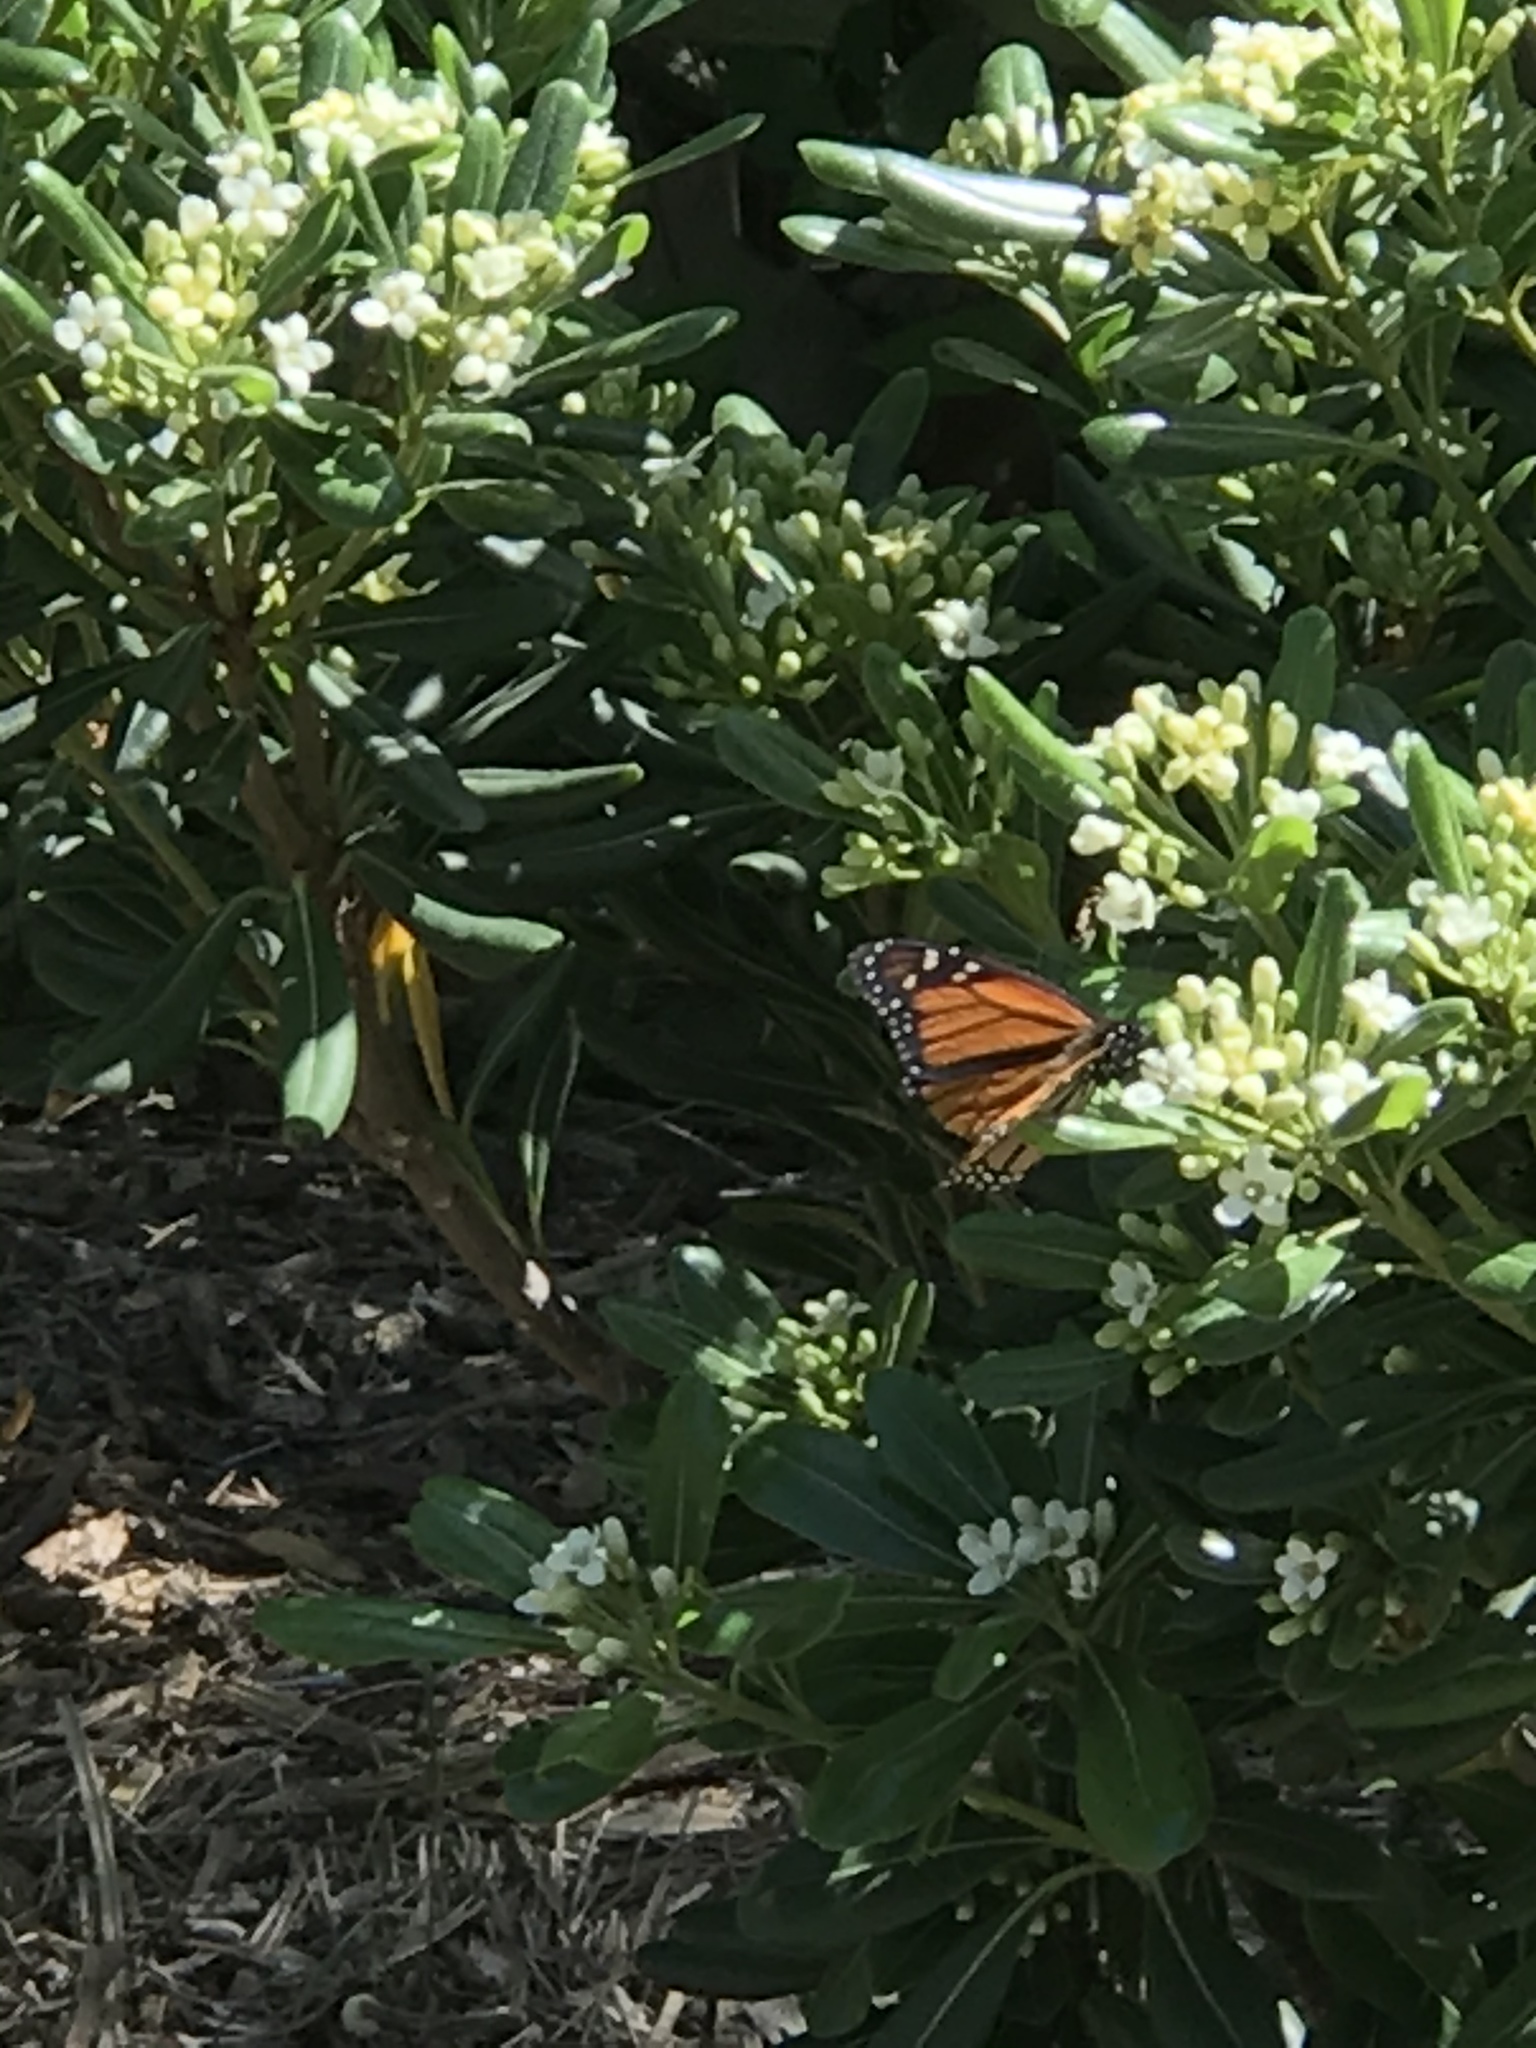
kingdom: Animalia
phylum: Arthropoda
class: Insecta
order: Lepidoptera
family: Nymphalidae
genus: Danaus
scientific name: Danaus plexippus
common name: Monarch
